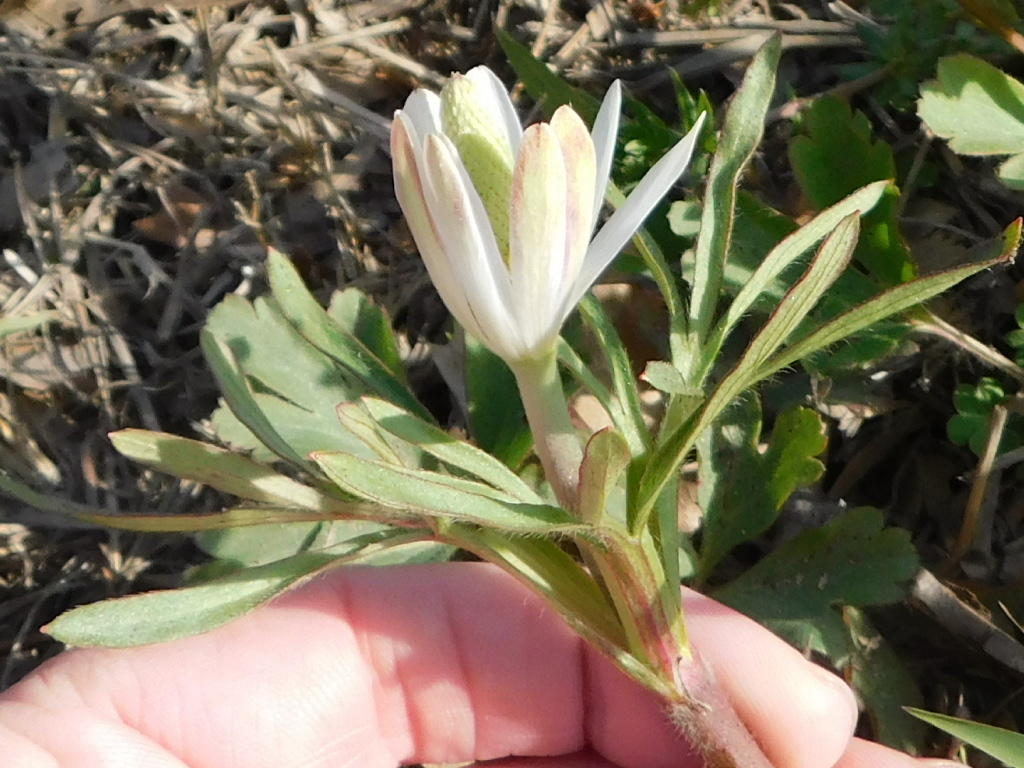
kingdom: Plantae
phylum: Tracheophyta
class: Magnoliopsida
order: Ranunculales
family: Ranunculaceae
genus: Anemone
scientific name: Anemone berlandieri
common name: Ten-petal anemone
